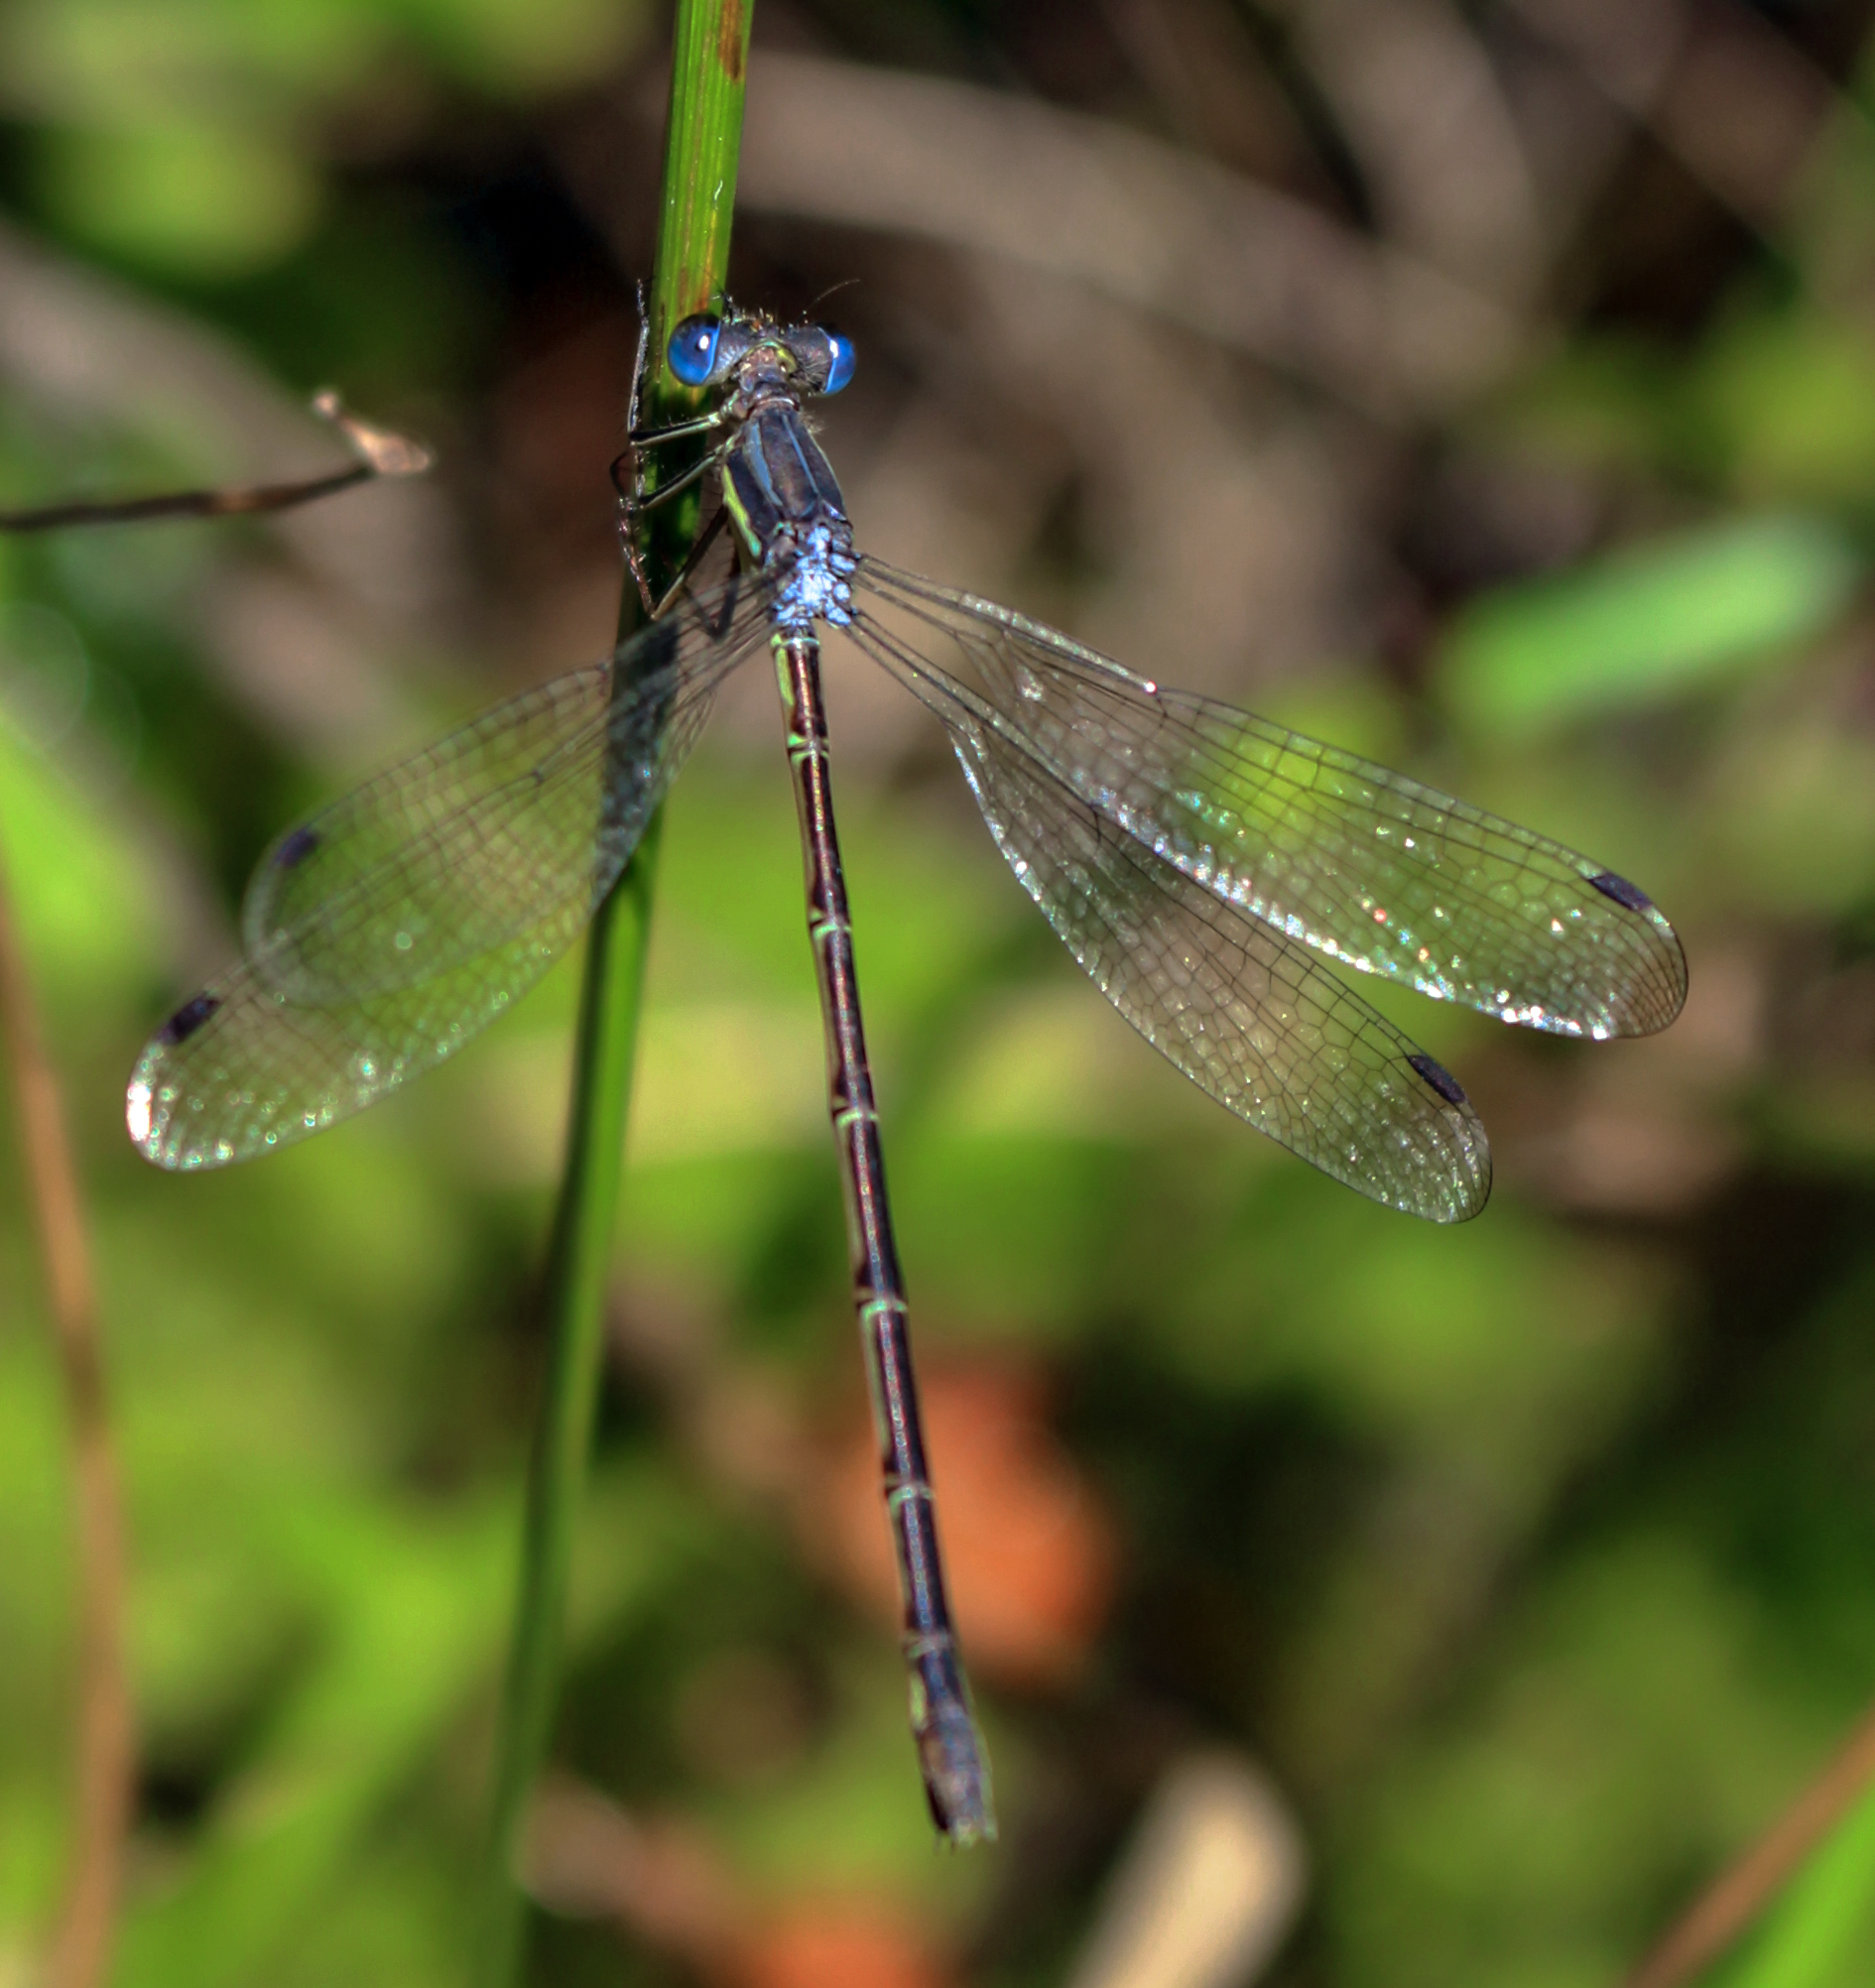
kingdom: Animalia
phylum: Arthropoda
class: Insecta
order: Odonata
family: Lestidae
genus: Lestes
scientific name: Lestes
